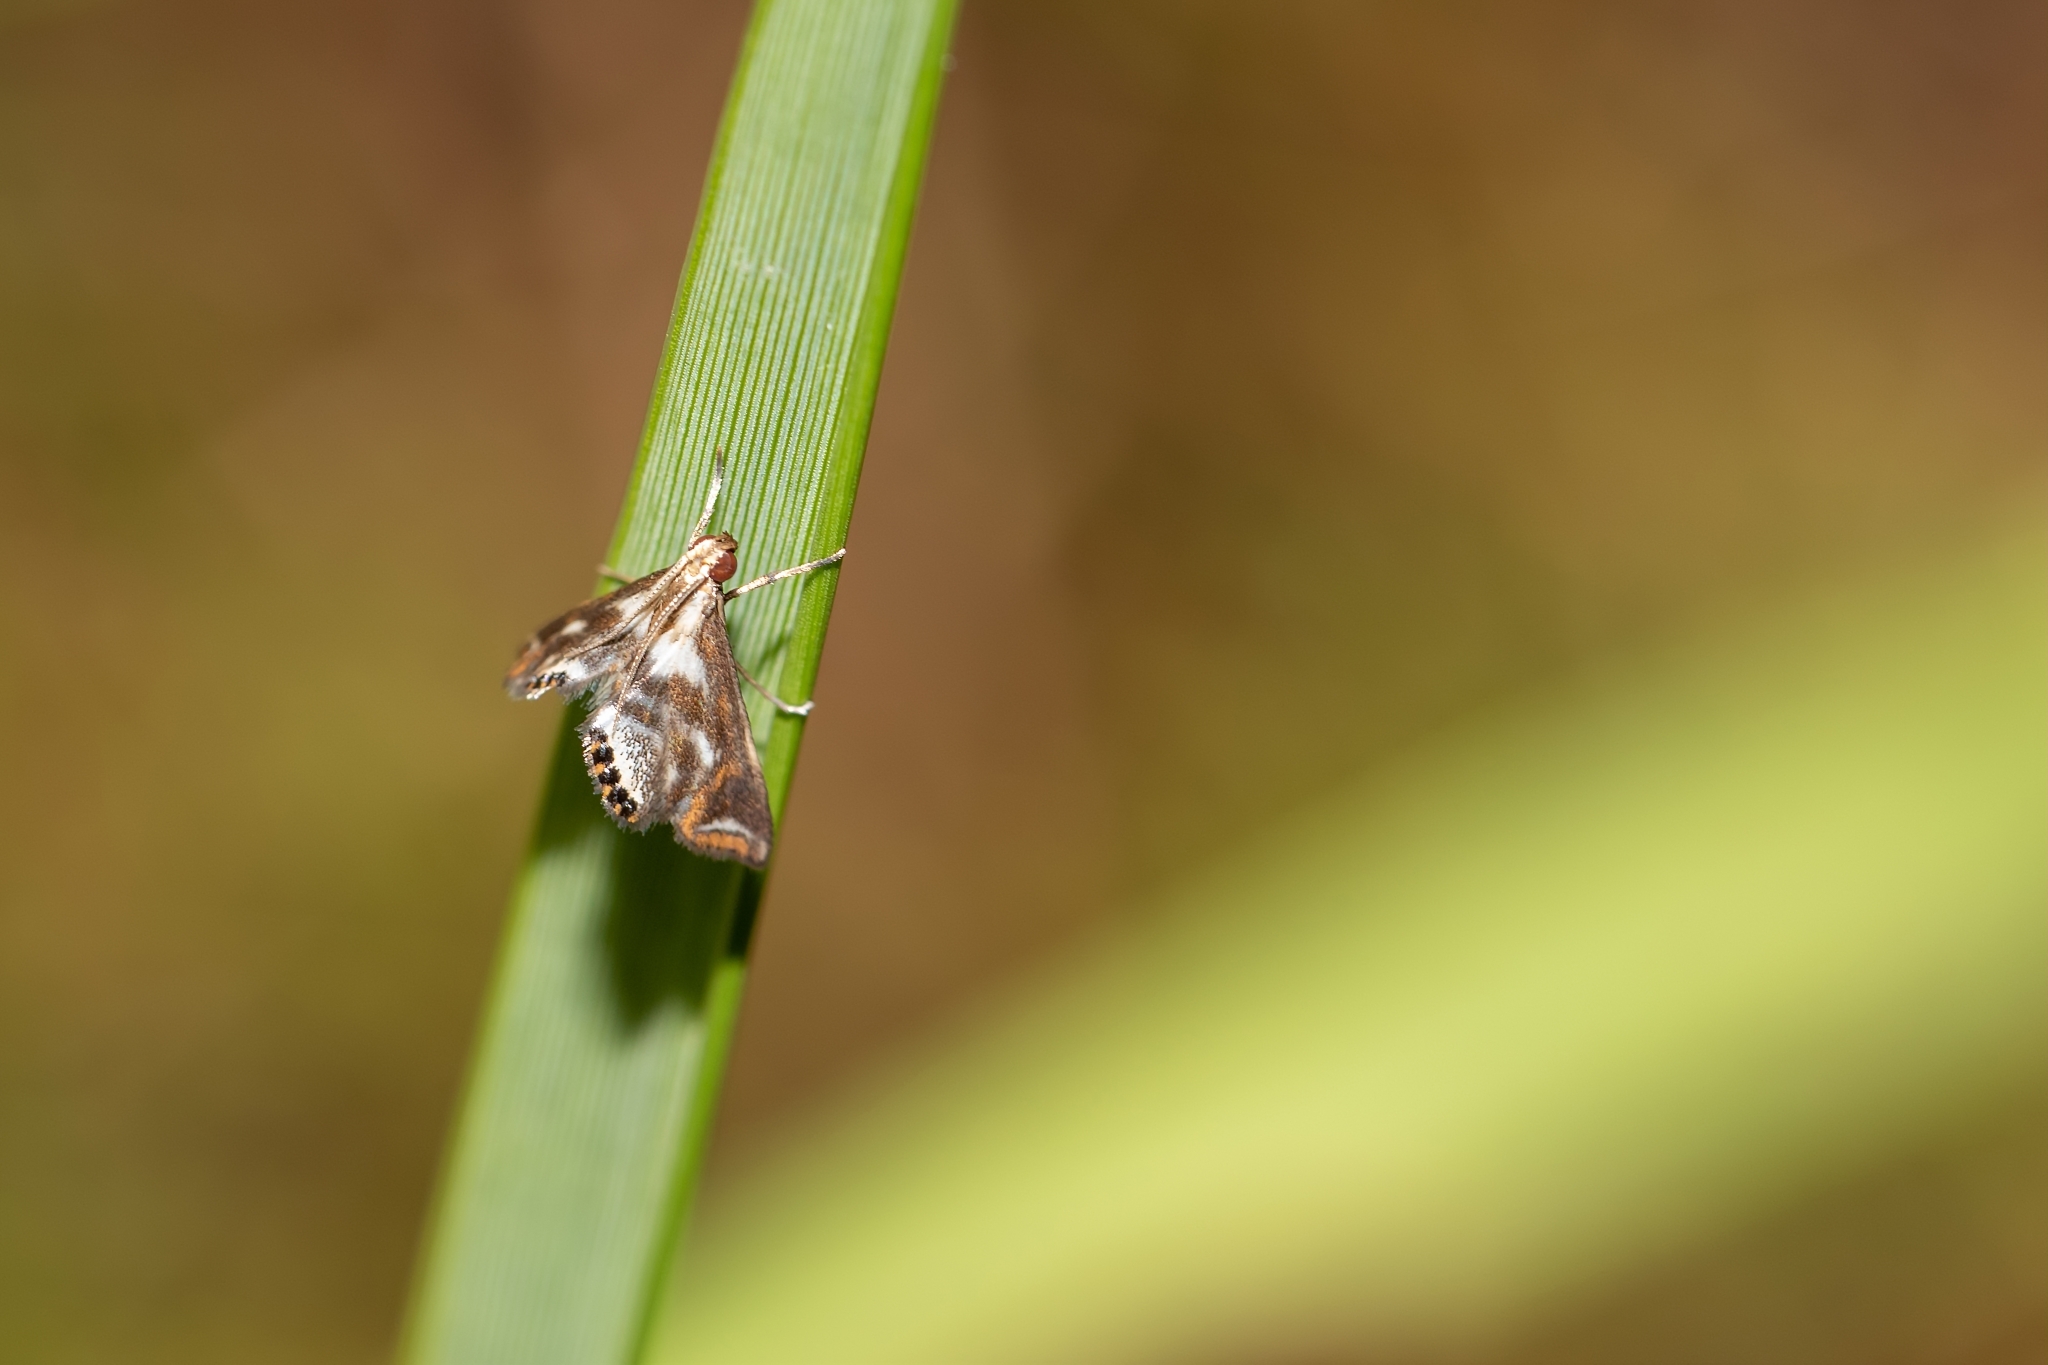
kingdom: Animalia
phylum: Arthropoda
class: Insecta
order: Lepidoptera
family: Crambidae
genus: Chrysendeton
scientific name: Chrysendeton imitabilis
